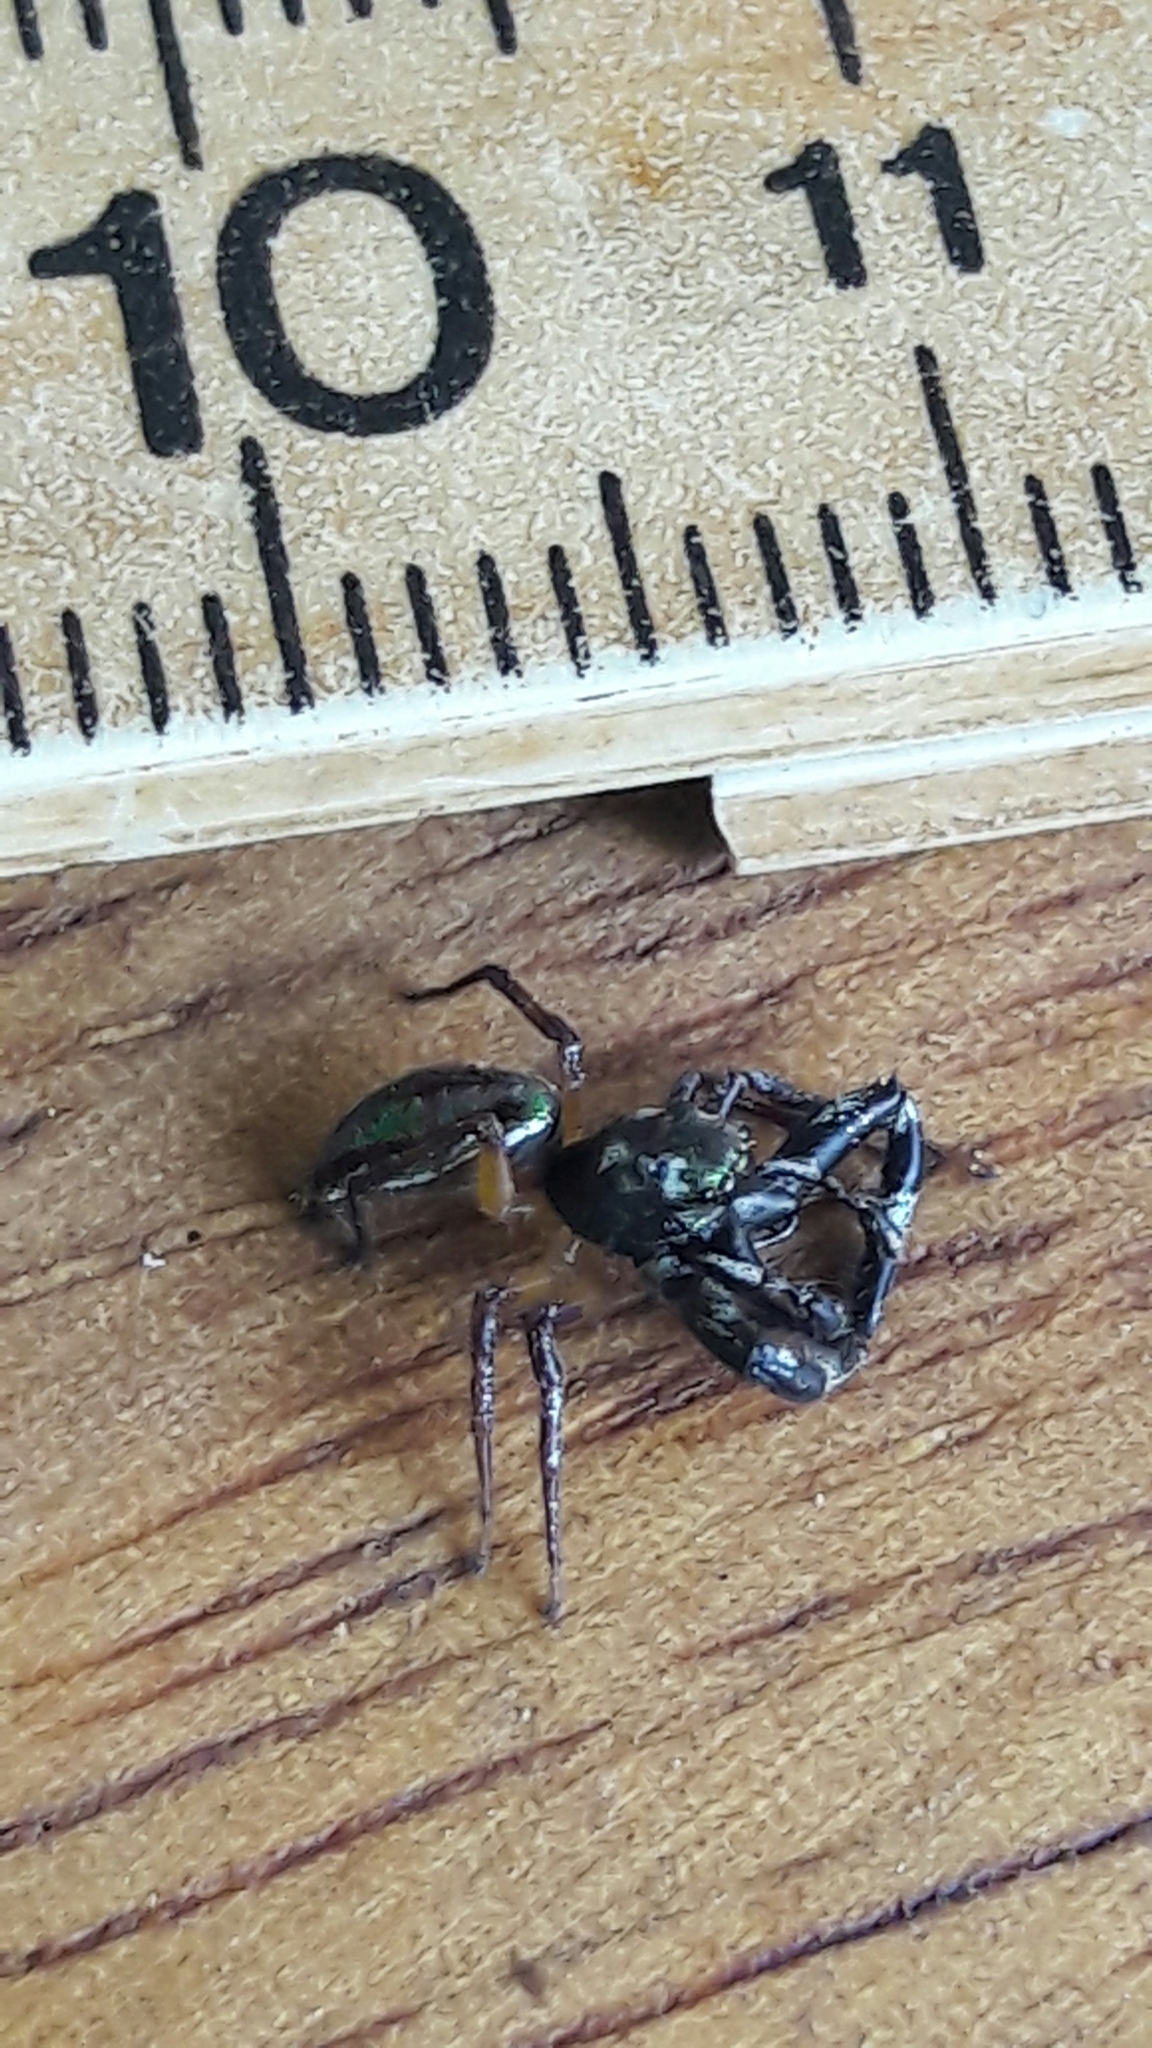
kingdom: Animalia
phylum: Arthropoda
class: Arachnida
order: Araneae
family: Salticidae
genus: Lurio
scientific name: Lurio conspicuus
